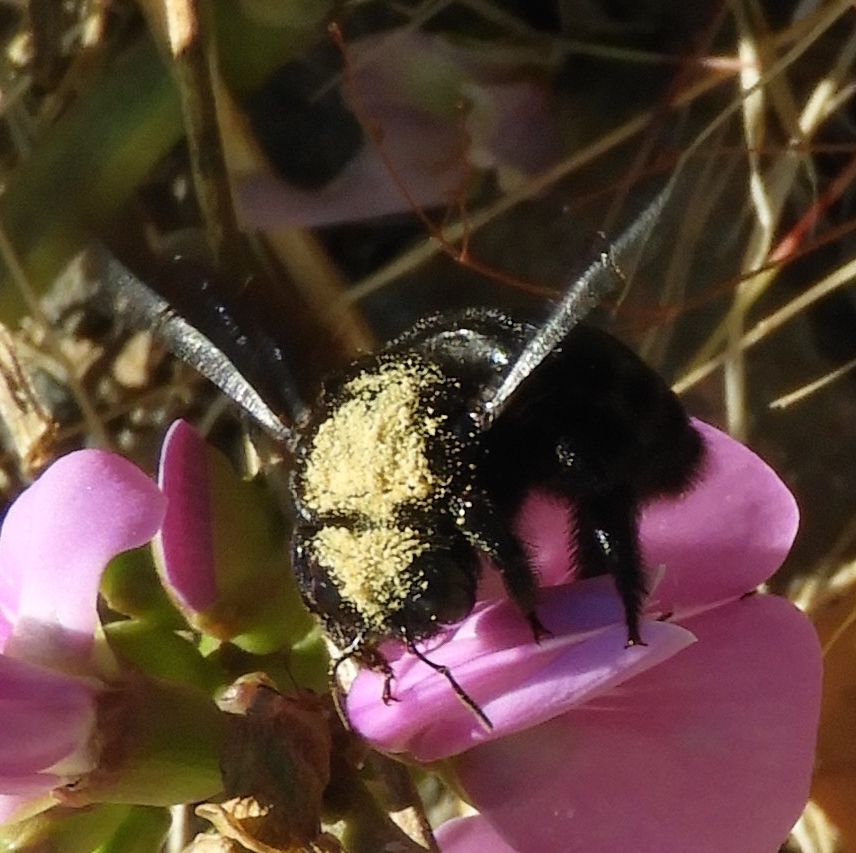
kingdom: Animalia
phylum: Arthropoda
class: Insecta
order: Hymenoptera
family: Apidae
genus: Xylocopa
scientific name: Xylocopa
